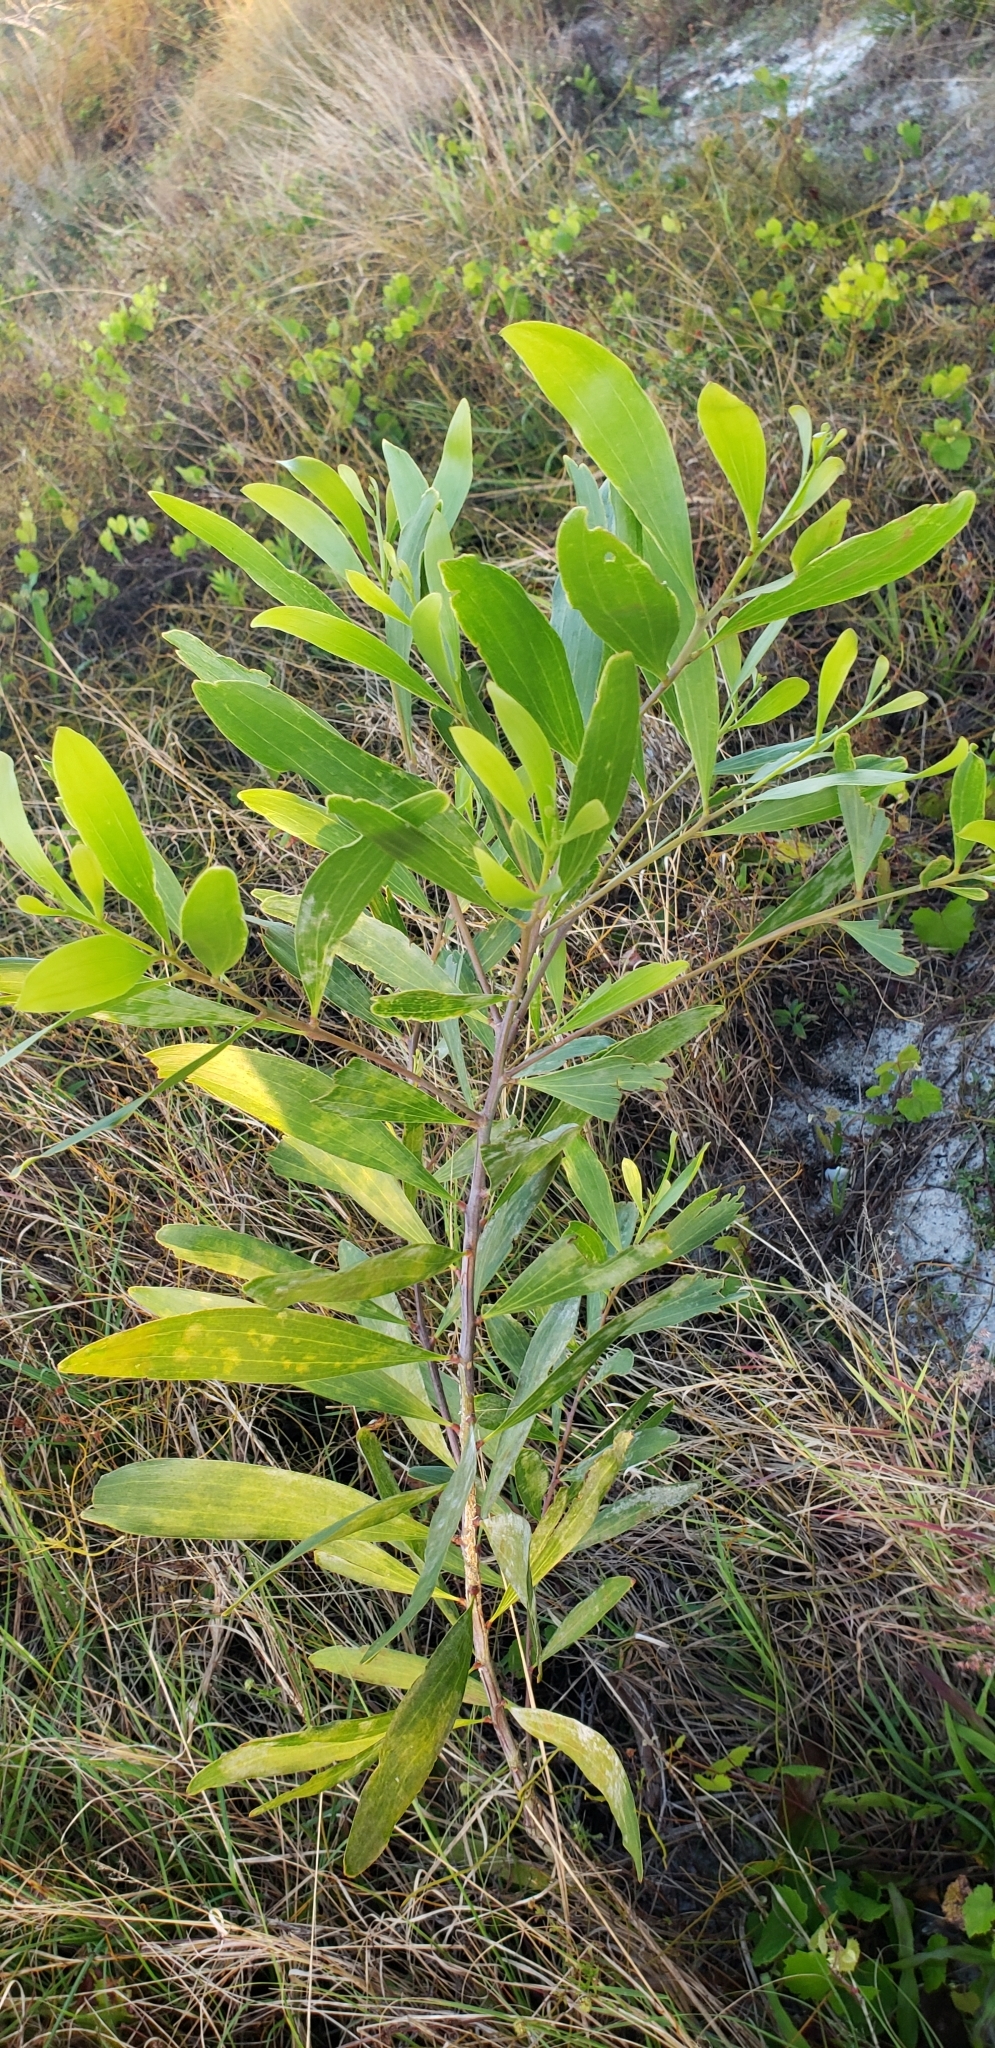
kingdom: Plantae
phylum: Tracheophyta
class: Magnoliopsida
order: Fabales
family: Fabaceae
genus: Acacia
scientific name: Acacia auriculiformis
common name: Earleaf acacia
